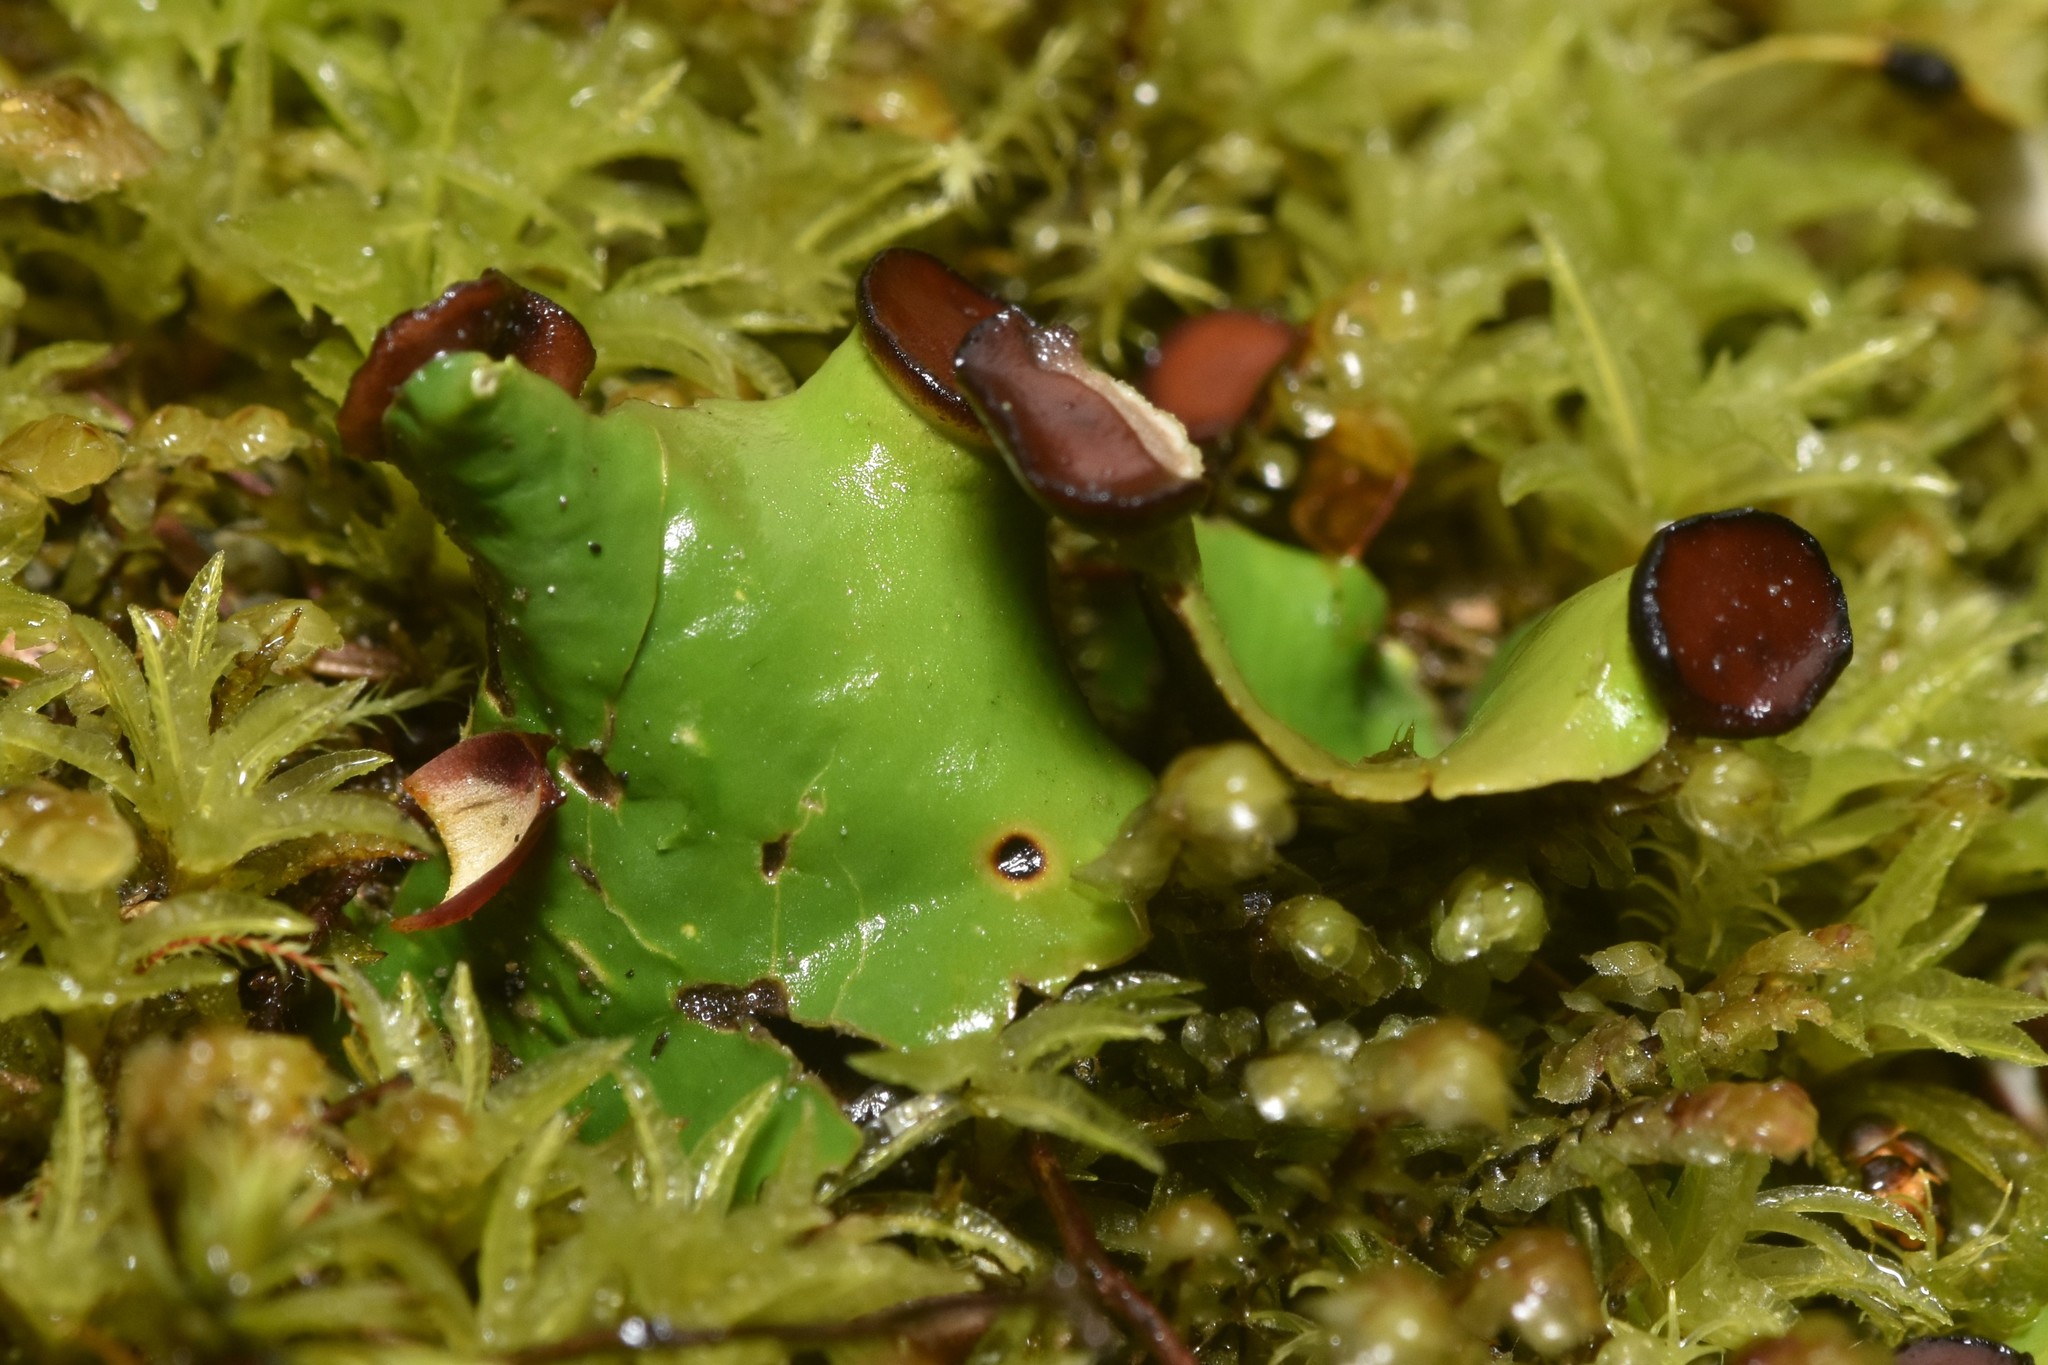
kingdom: Fungi
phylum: Ascomycota
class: Lecanoromycetes
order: Peltigerales
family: Peltigeraceae
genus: Peltigera
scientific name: Peltigera venosa
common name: Pixie gowns lichen
